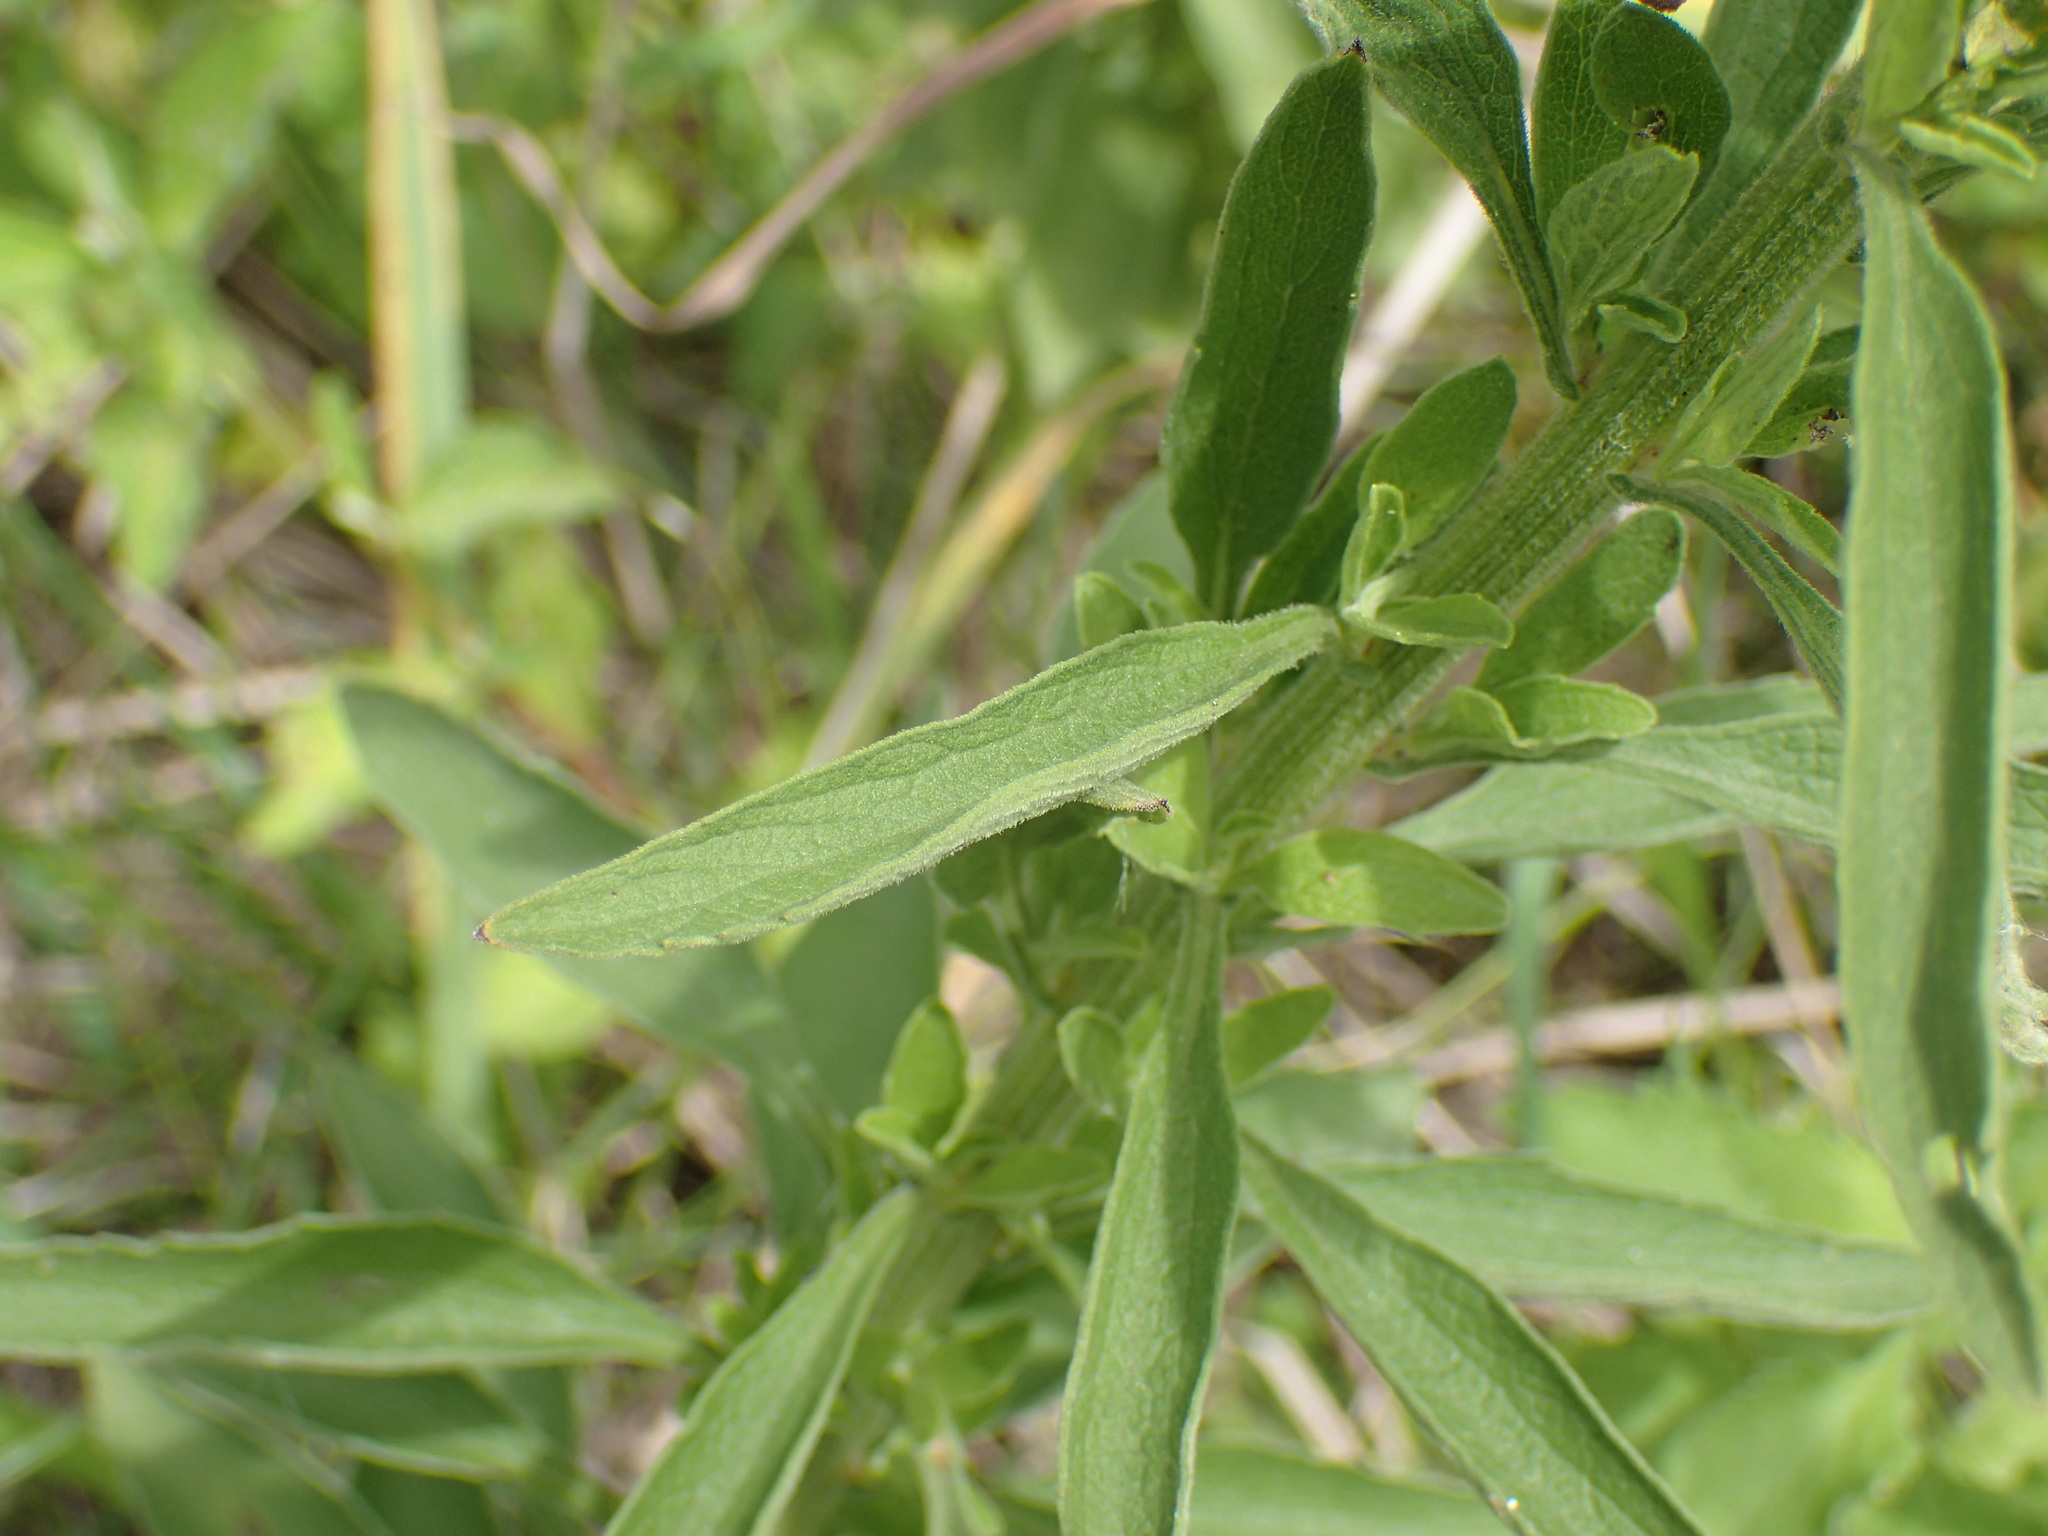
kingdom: Plantae
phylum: Tracheophyta
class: Magnoliopsida
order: Asterales
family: Asteraceae
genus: Nidorella
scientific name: Nidorella auriculata
